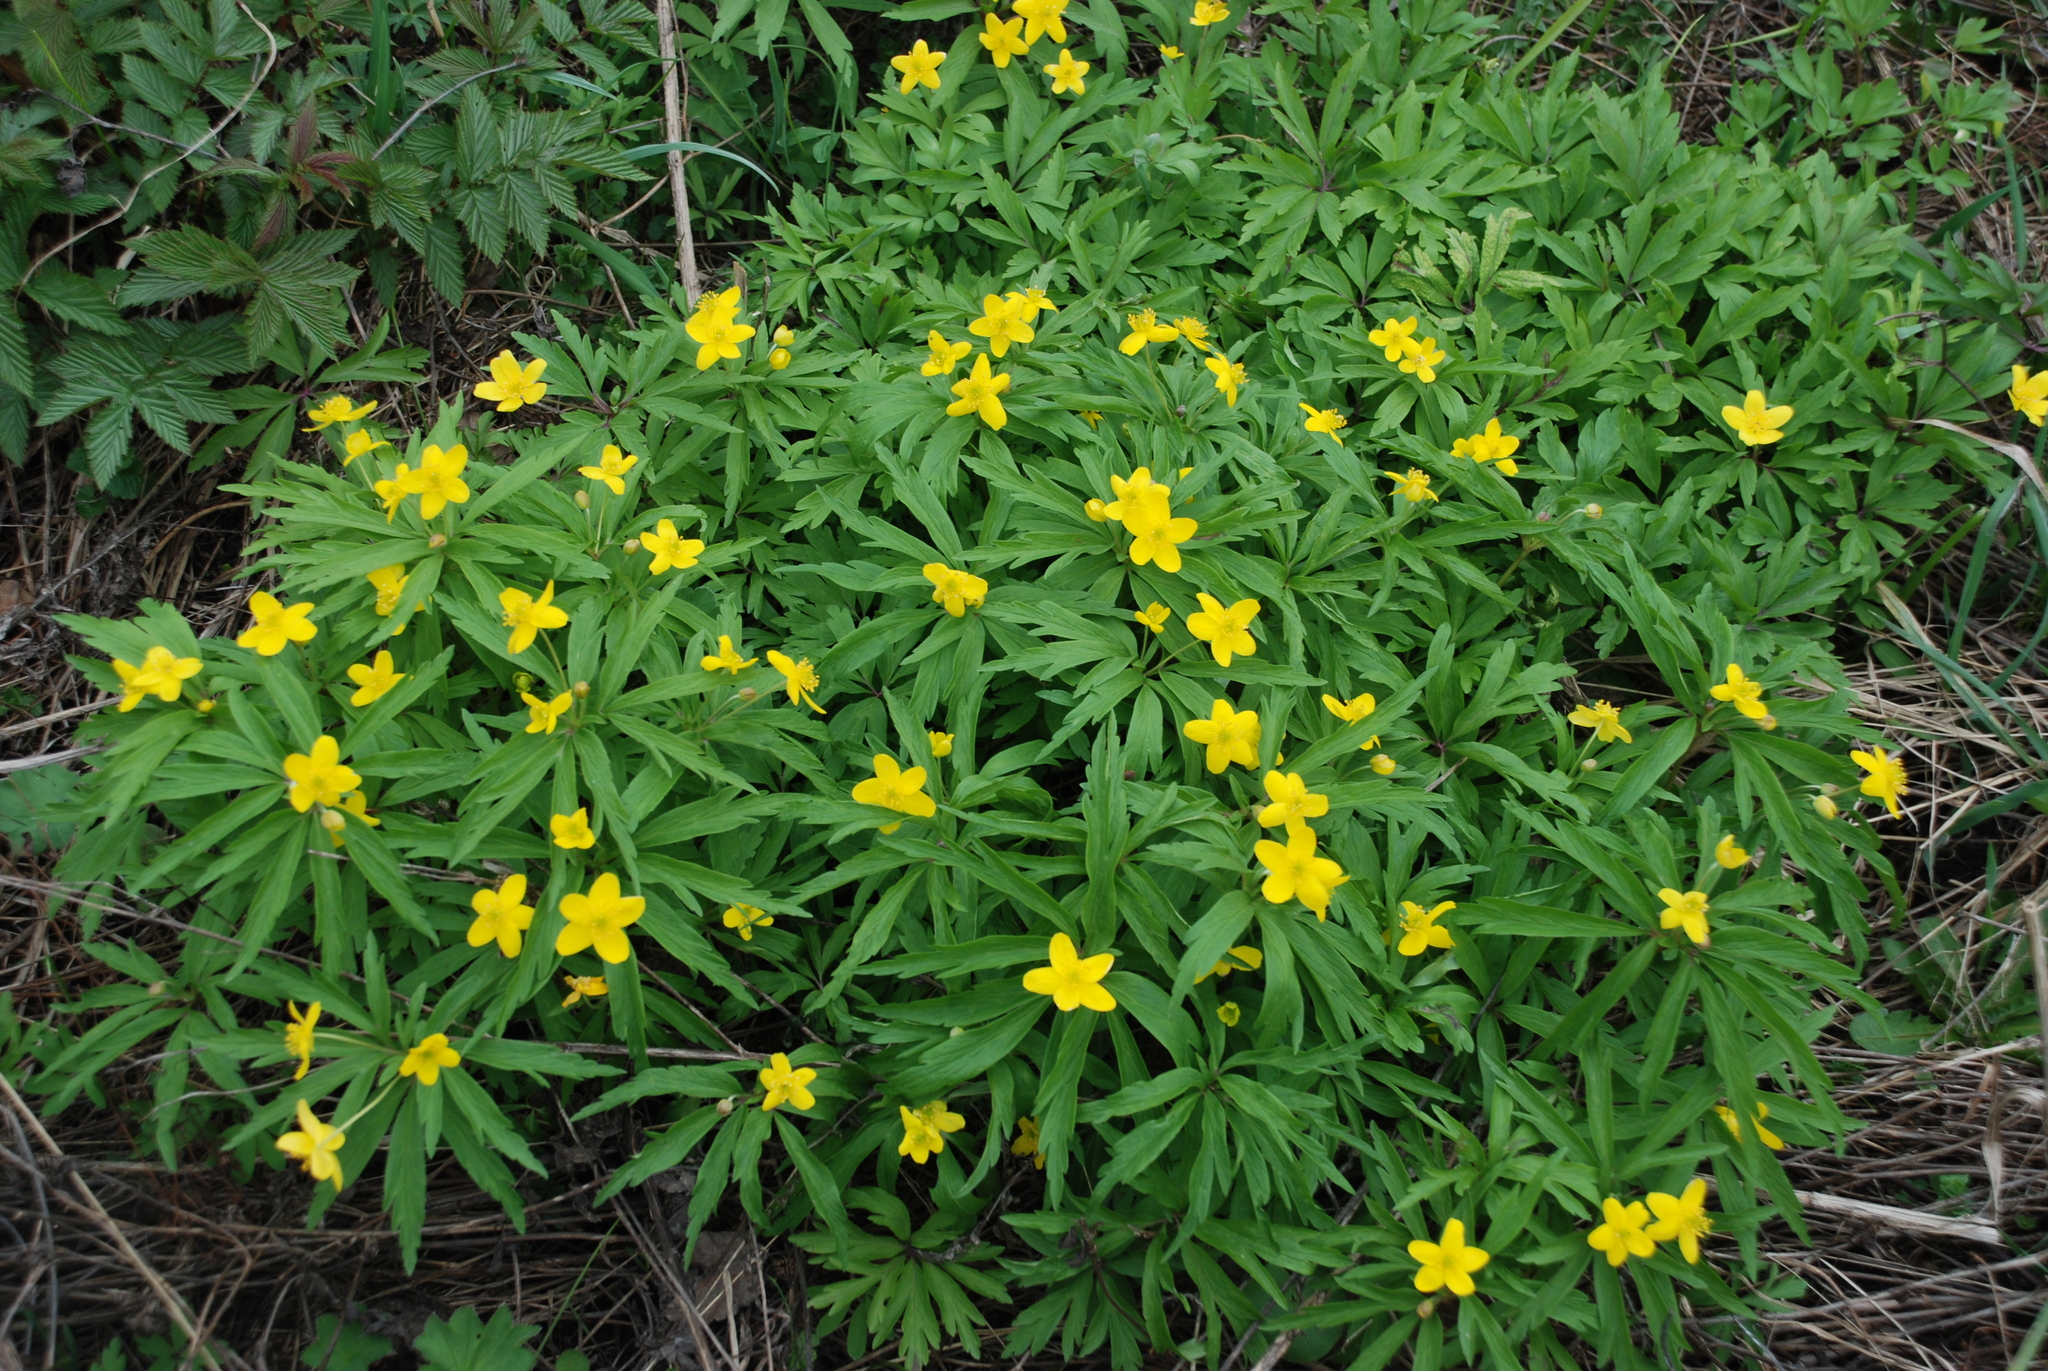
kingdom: Plantae
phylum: Tracheophyta
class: Magnoliopsida
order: Ranunculales
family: Ranunculaceae
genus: Anemone
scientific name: Anemone ranunculoides
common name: Yellow anemone
